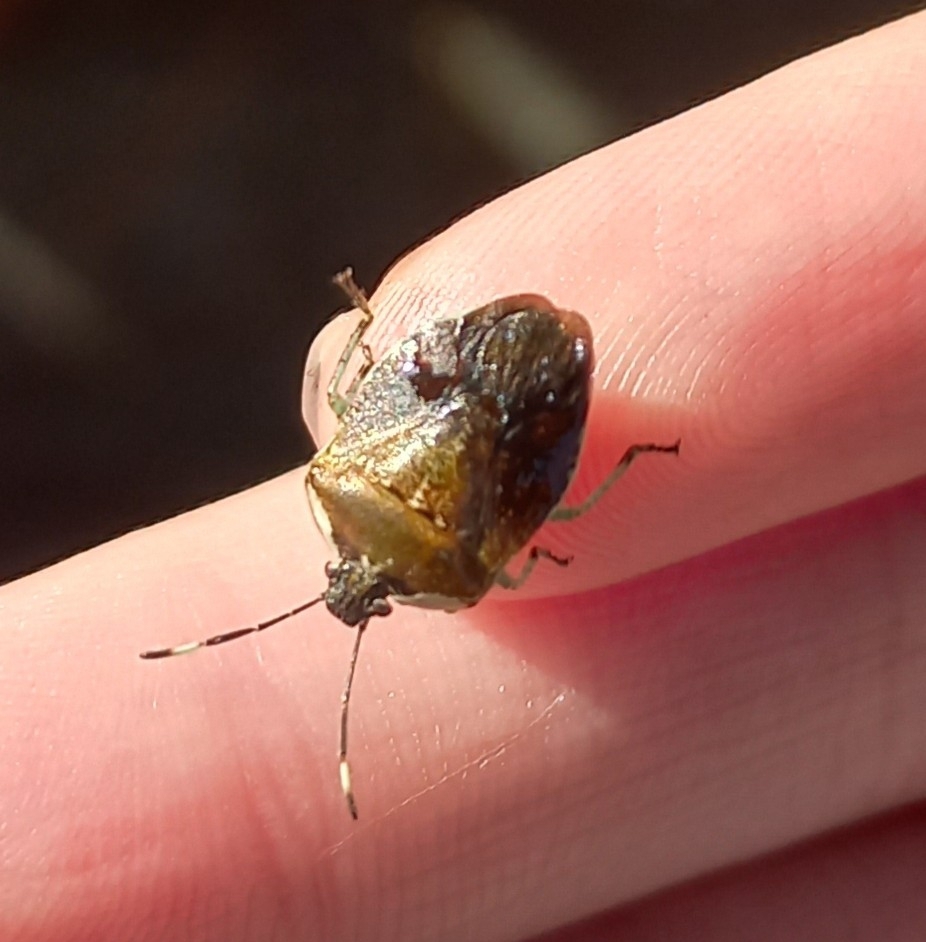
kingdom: Animalia
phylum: Arthropoda
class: Insecta
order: Hemiptera
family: Pentatomidae
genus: Monteithiella
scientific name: Monteithiella
